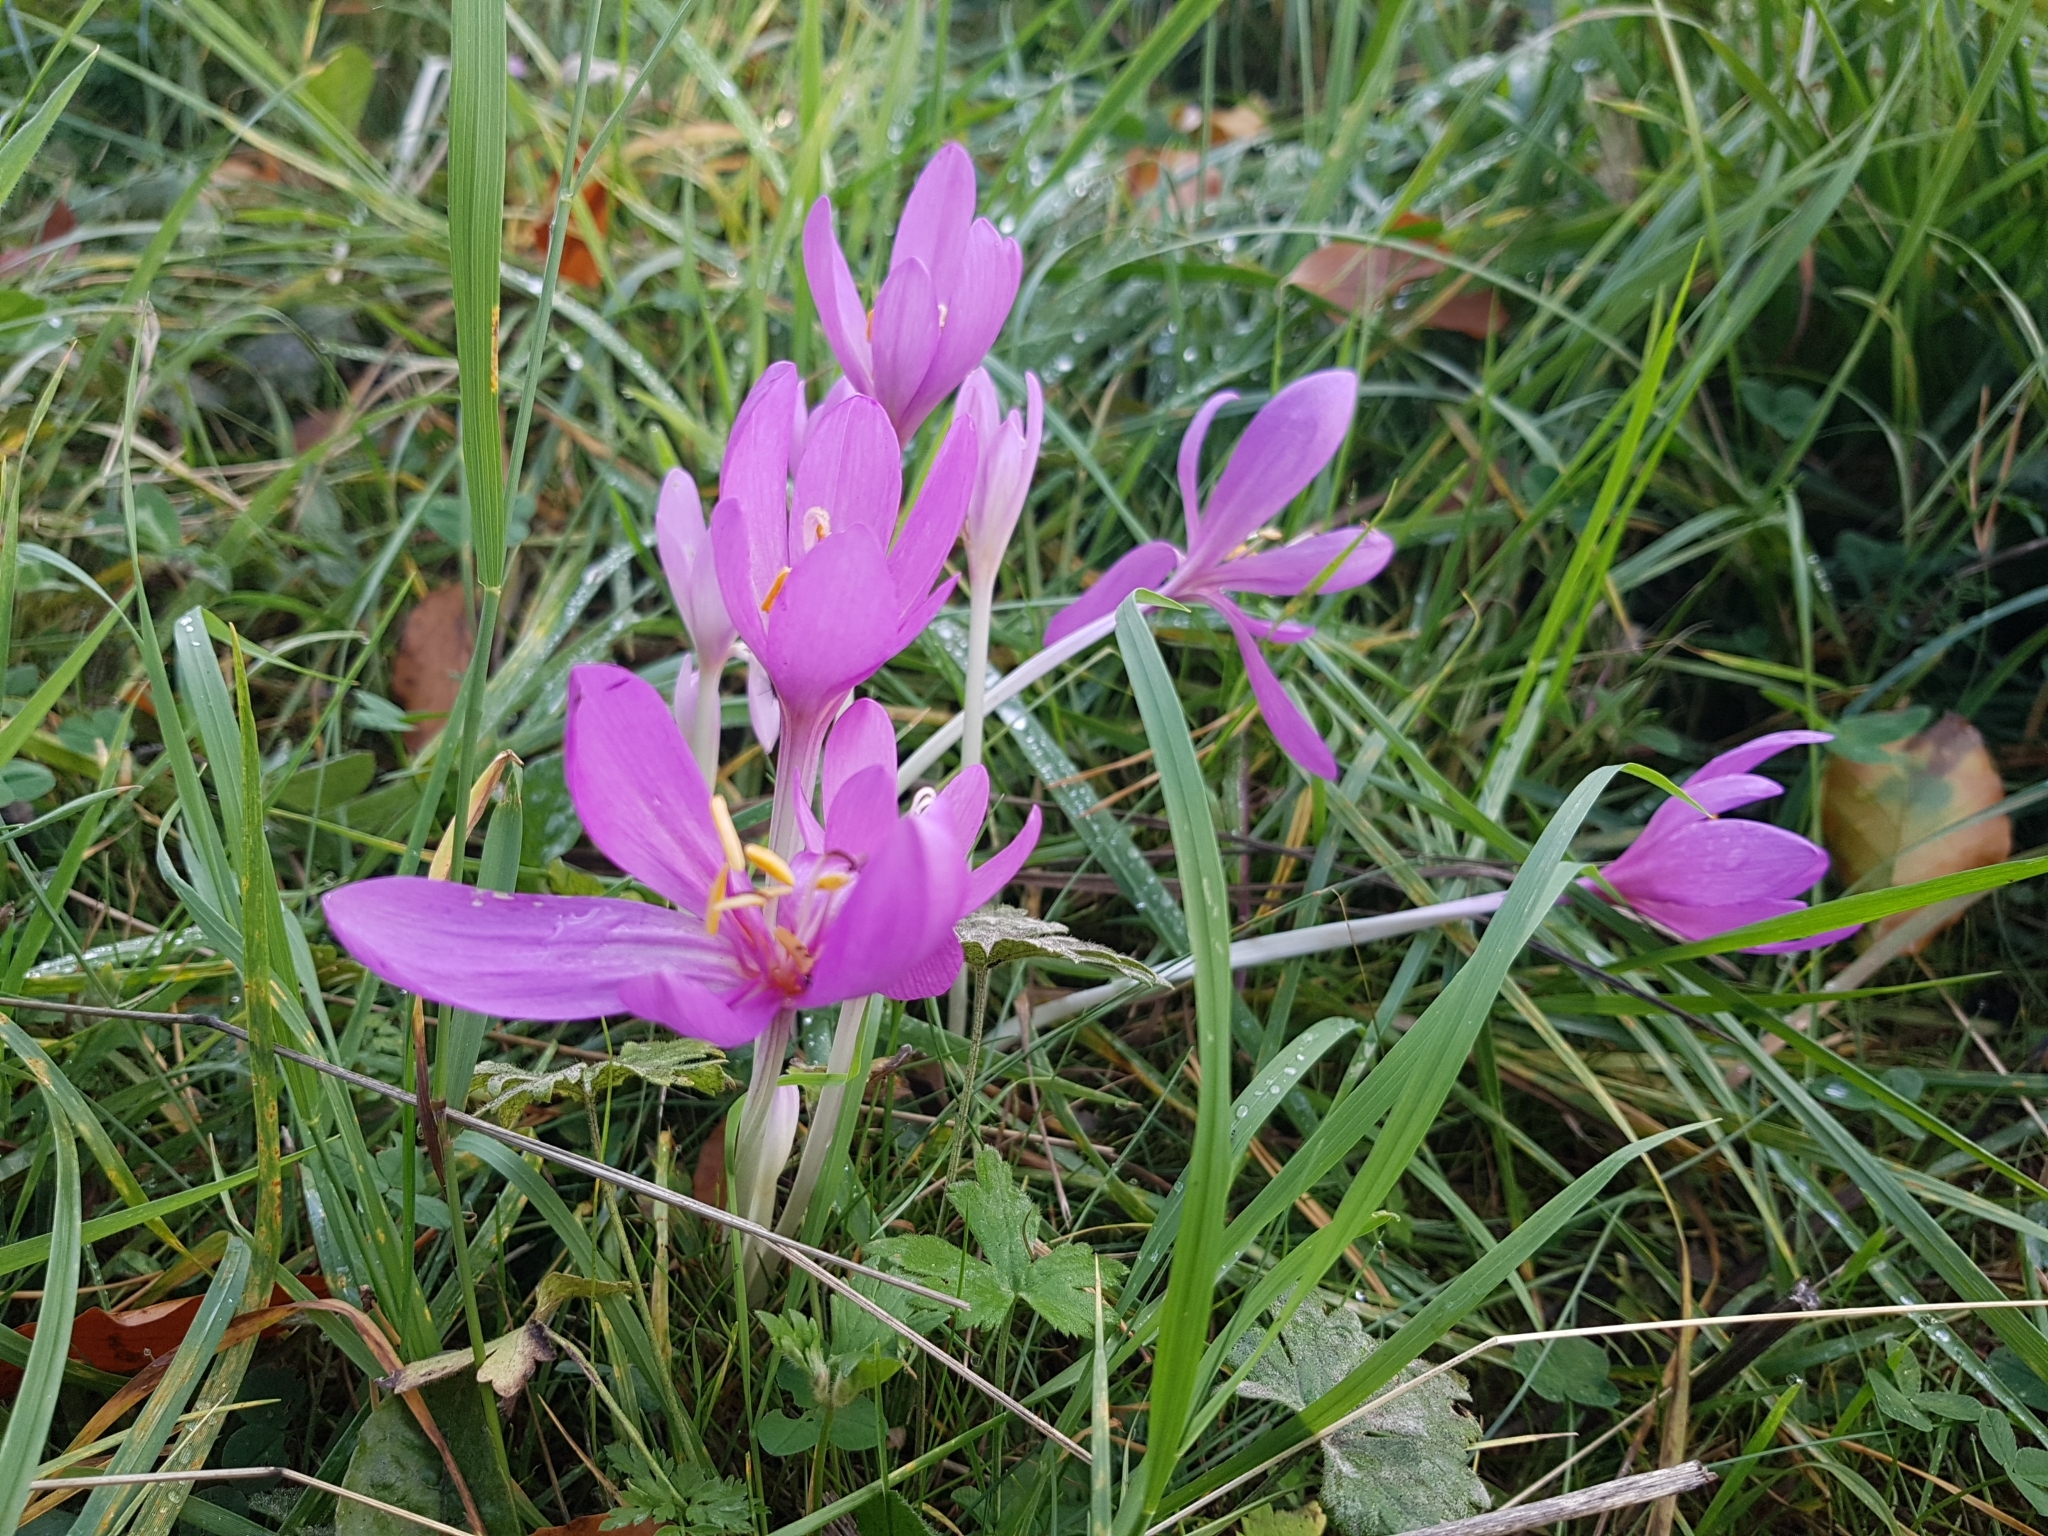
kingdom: Plantae
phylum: Tracheophyta
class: Liliopsida
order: Liliales
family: Colchicaceae
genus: Colchicum
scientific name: Colchicum autumnale
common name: Autumn crocus
